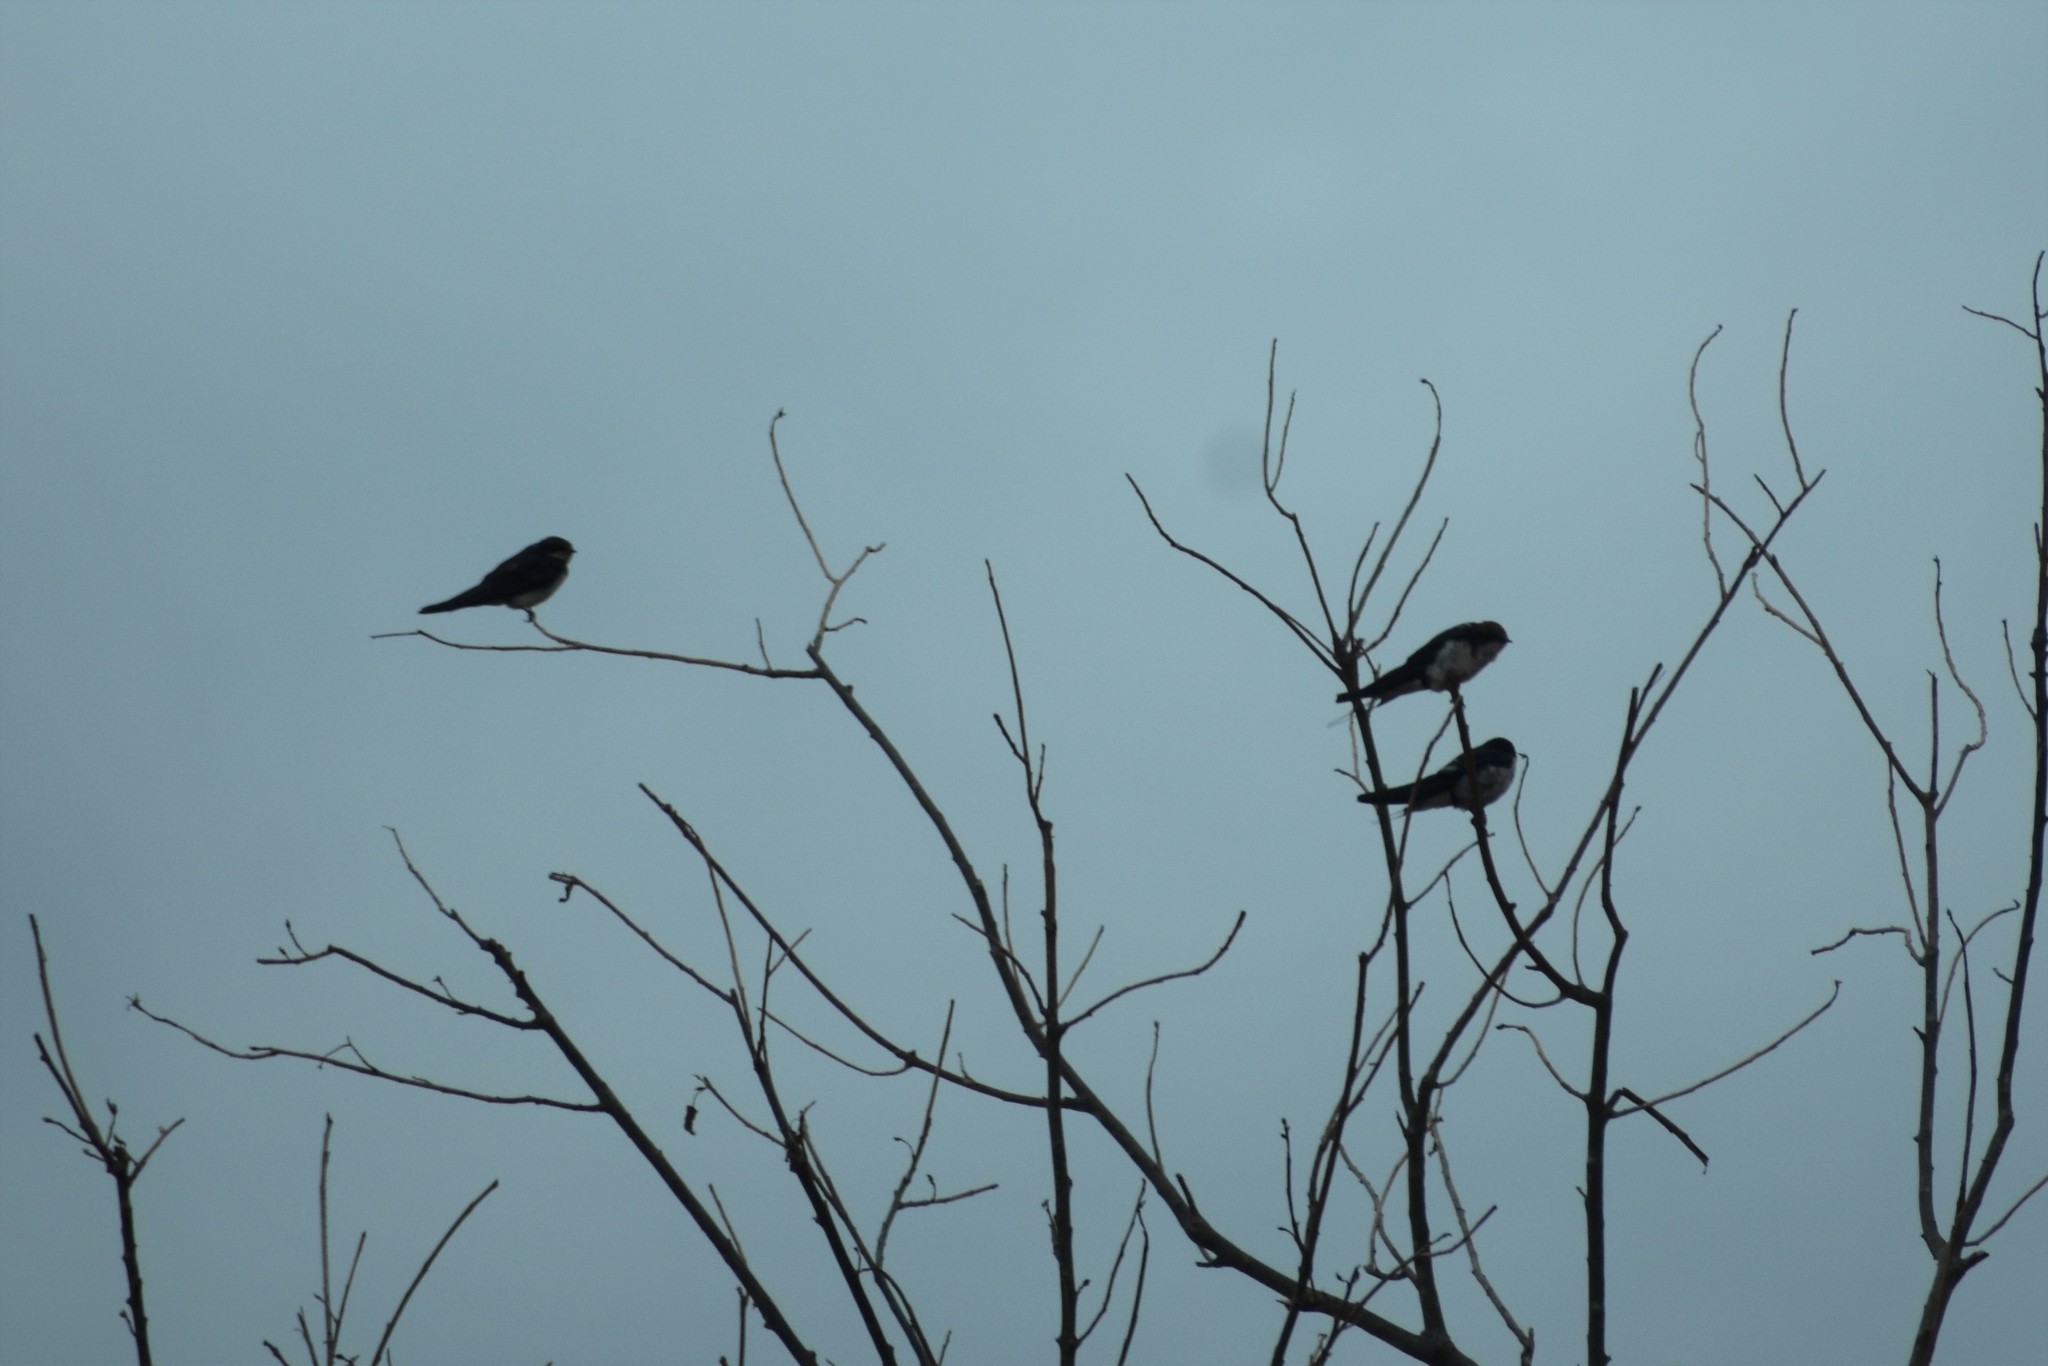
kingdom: Animalia
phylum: Chordata
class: Aves
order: Passeriformes
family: Hirundinidae
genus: Hirundo
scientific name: Hirundo smithii
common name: Wire-tailed swallow
